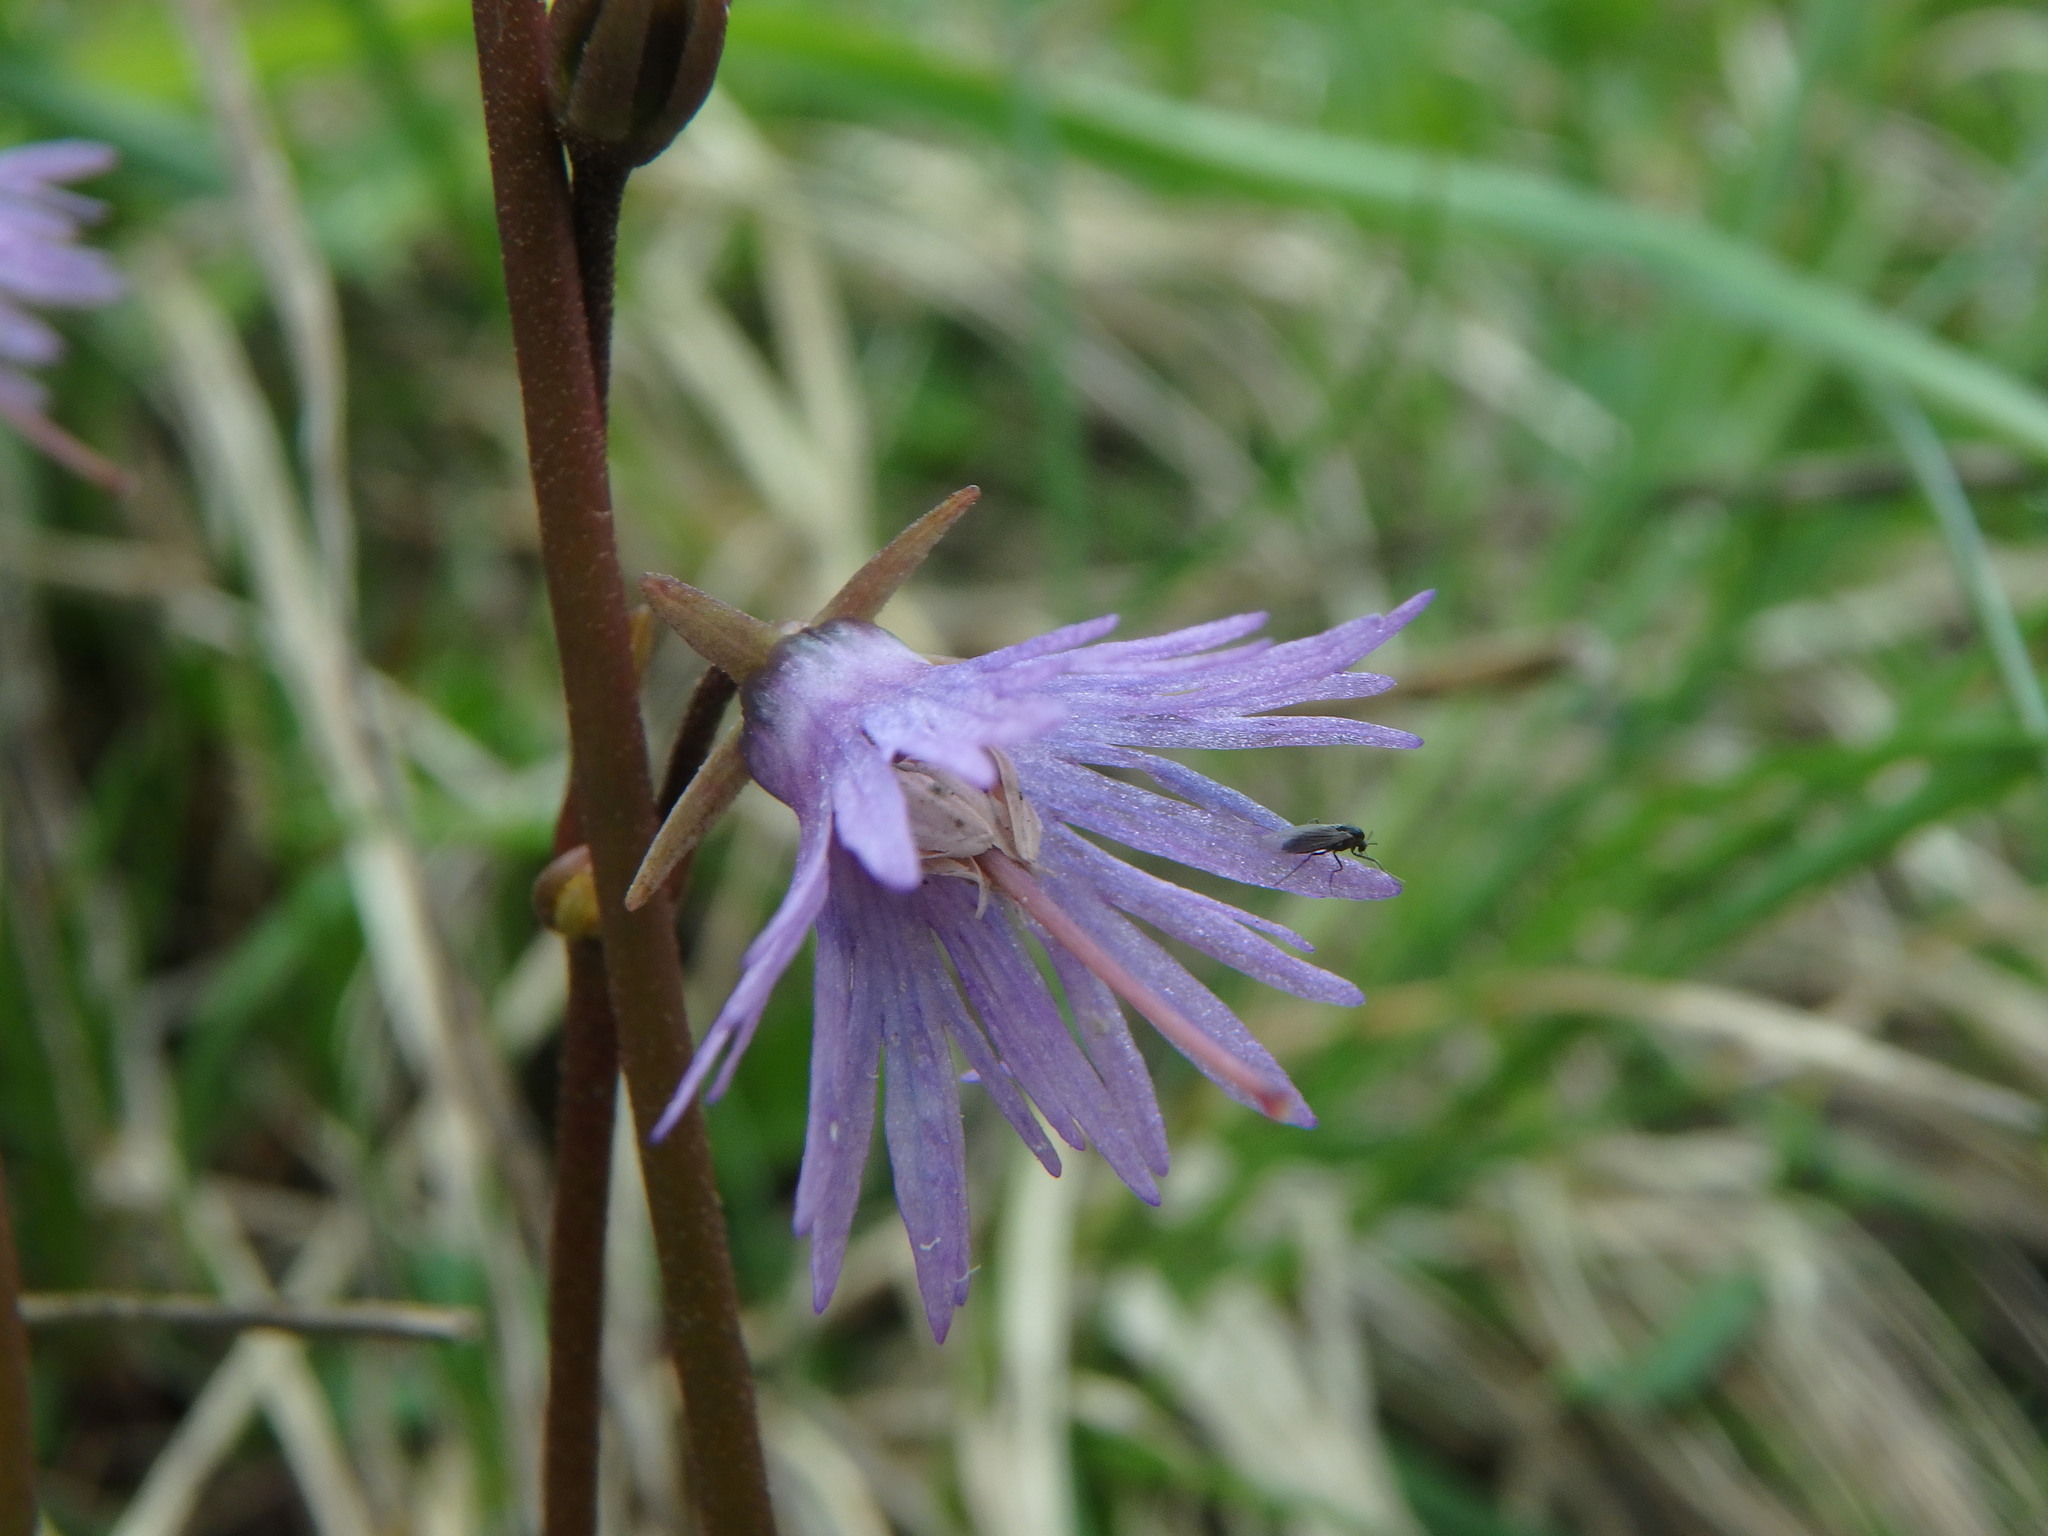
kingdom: Plantae
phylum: Tracheophyta
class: Magnoliopsida
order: Ericales
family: Primulaceae
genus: Soldanella
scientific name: Soldanella alpina
